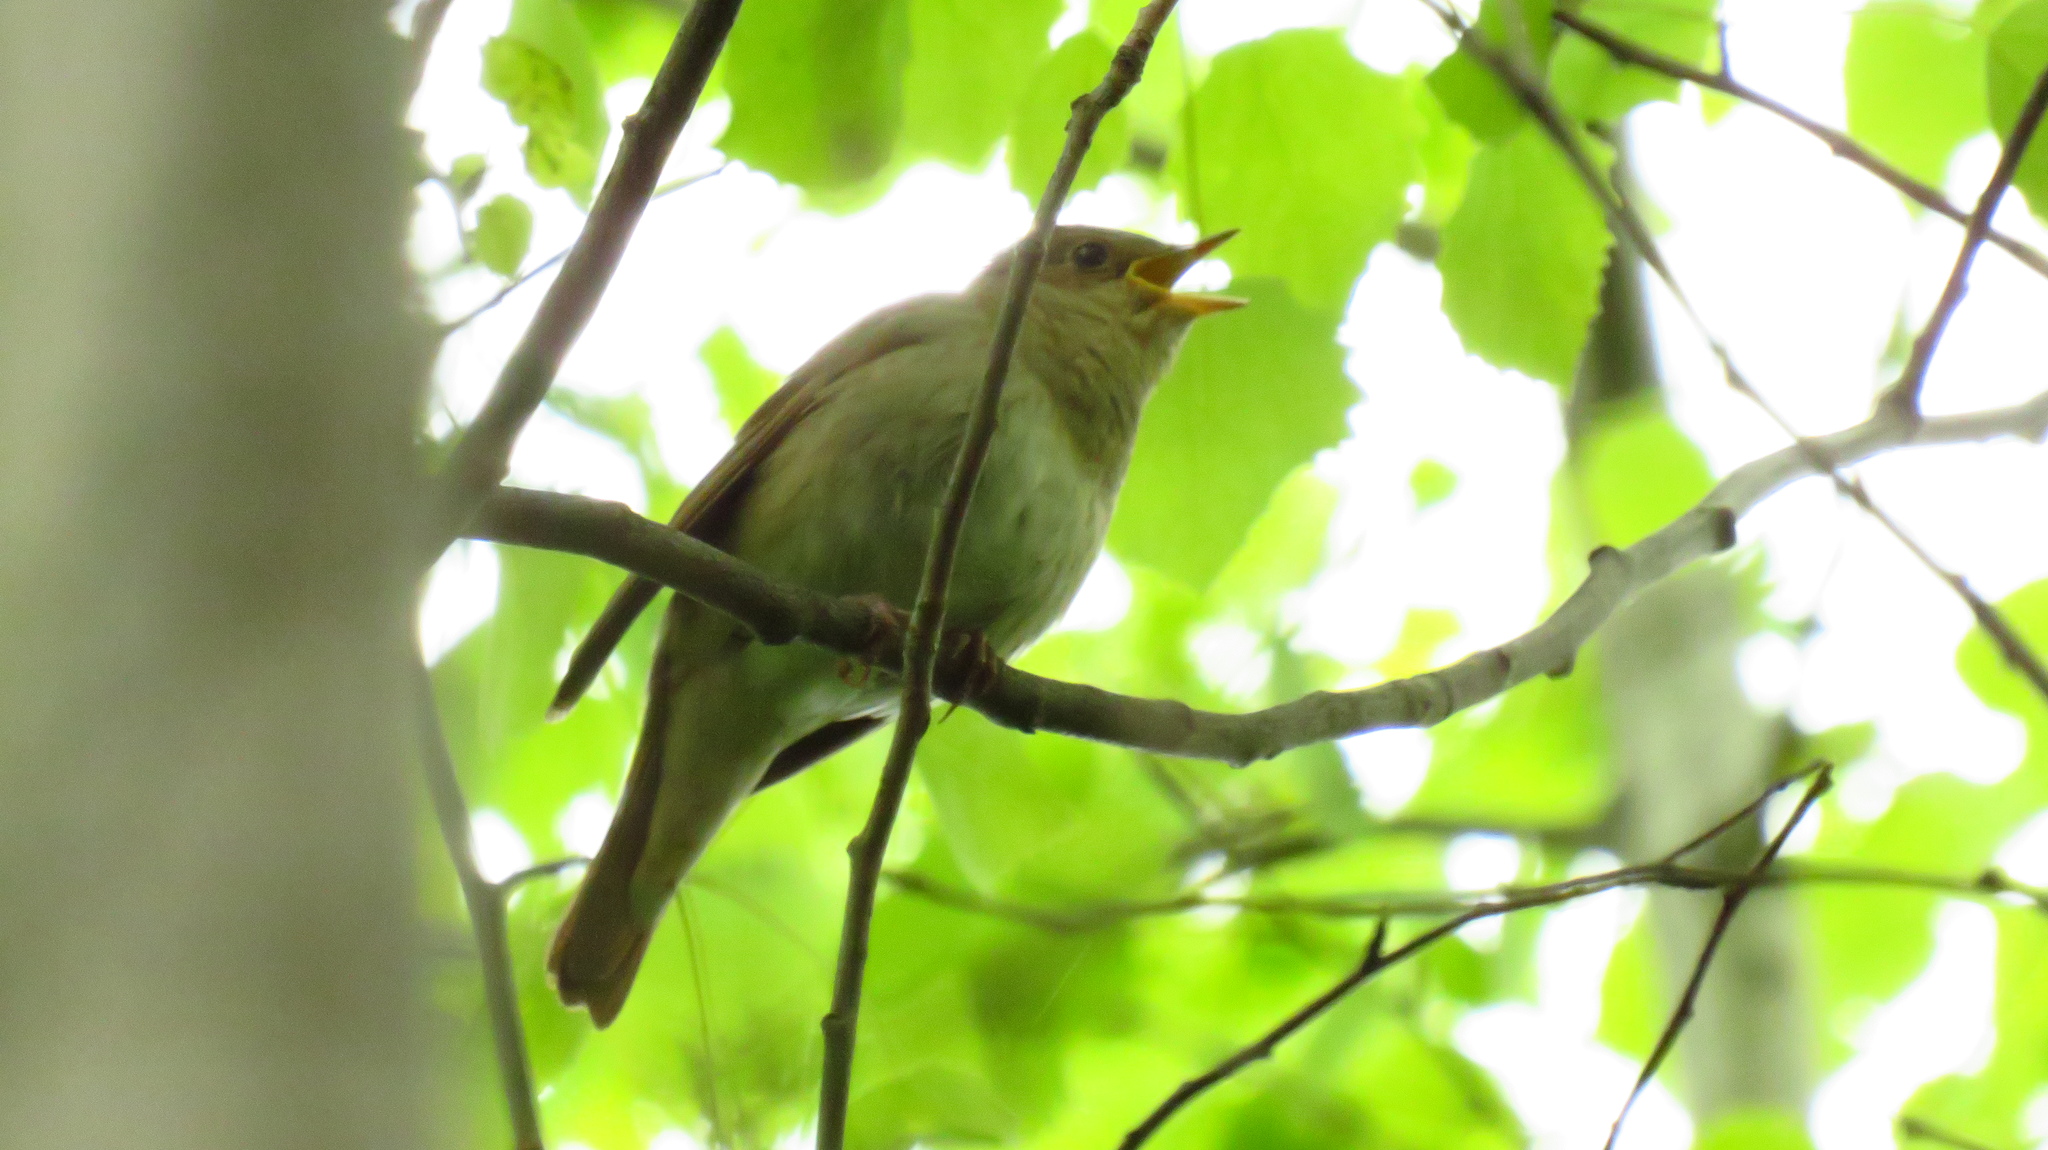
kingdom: Animalia
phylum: Chordata
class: Aves
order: Passeriformes
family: Muscicapidae
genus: Luscinia
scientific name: Luscinia luscinia
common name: Thrush nightingale
